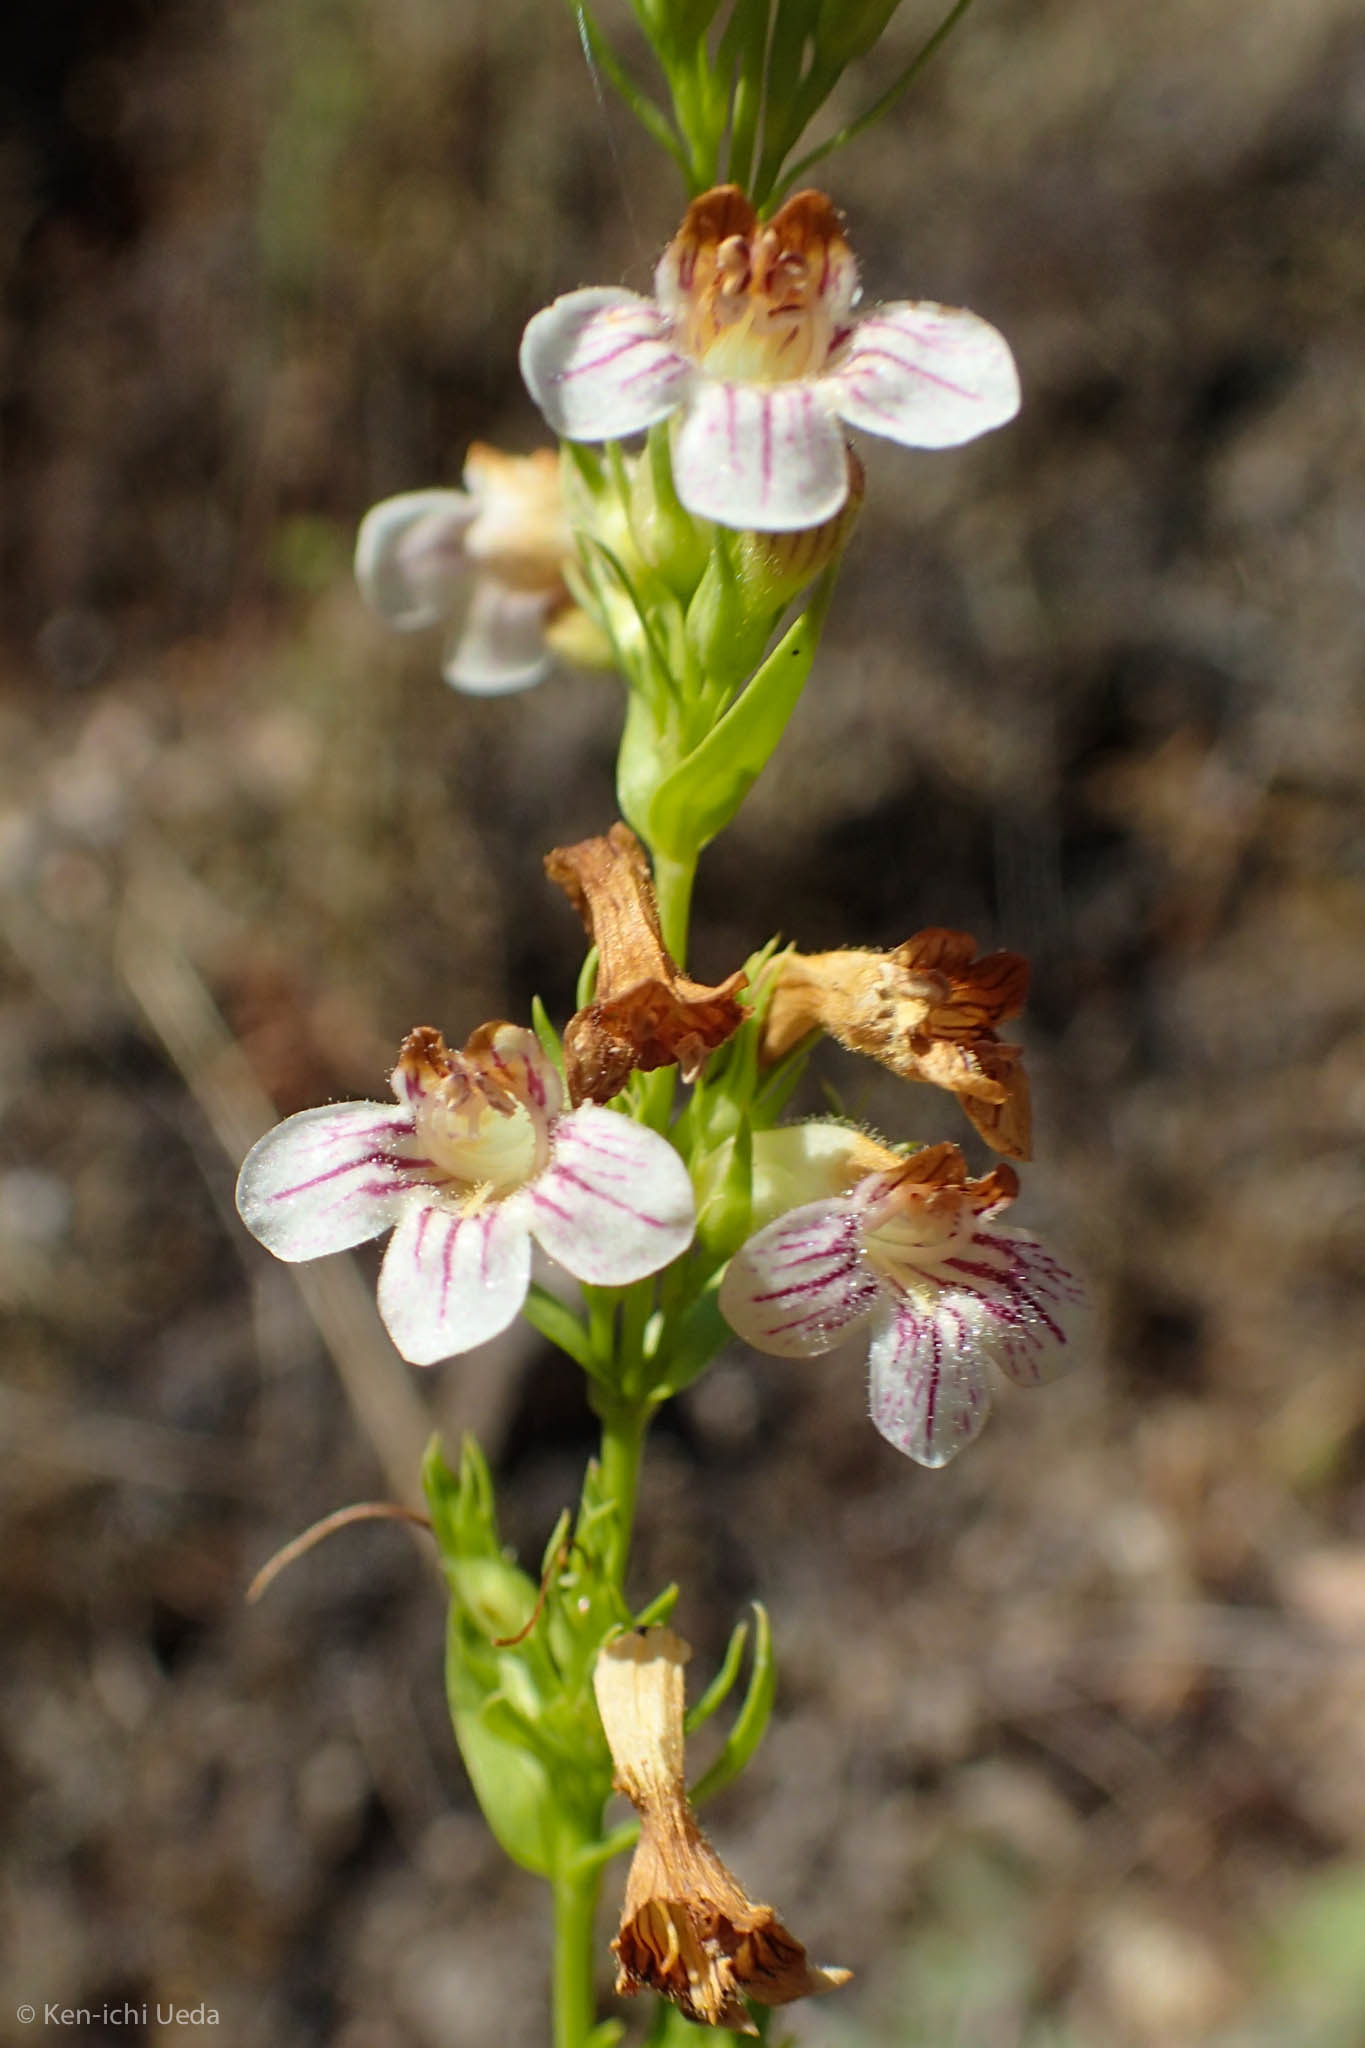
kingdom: Plantae
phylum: Tracheophyta
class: Magnoliopsida
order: Lamiales
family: Plantaginaceae
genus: Penstemon
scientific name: Penstemon deustus
